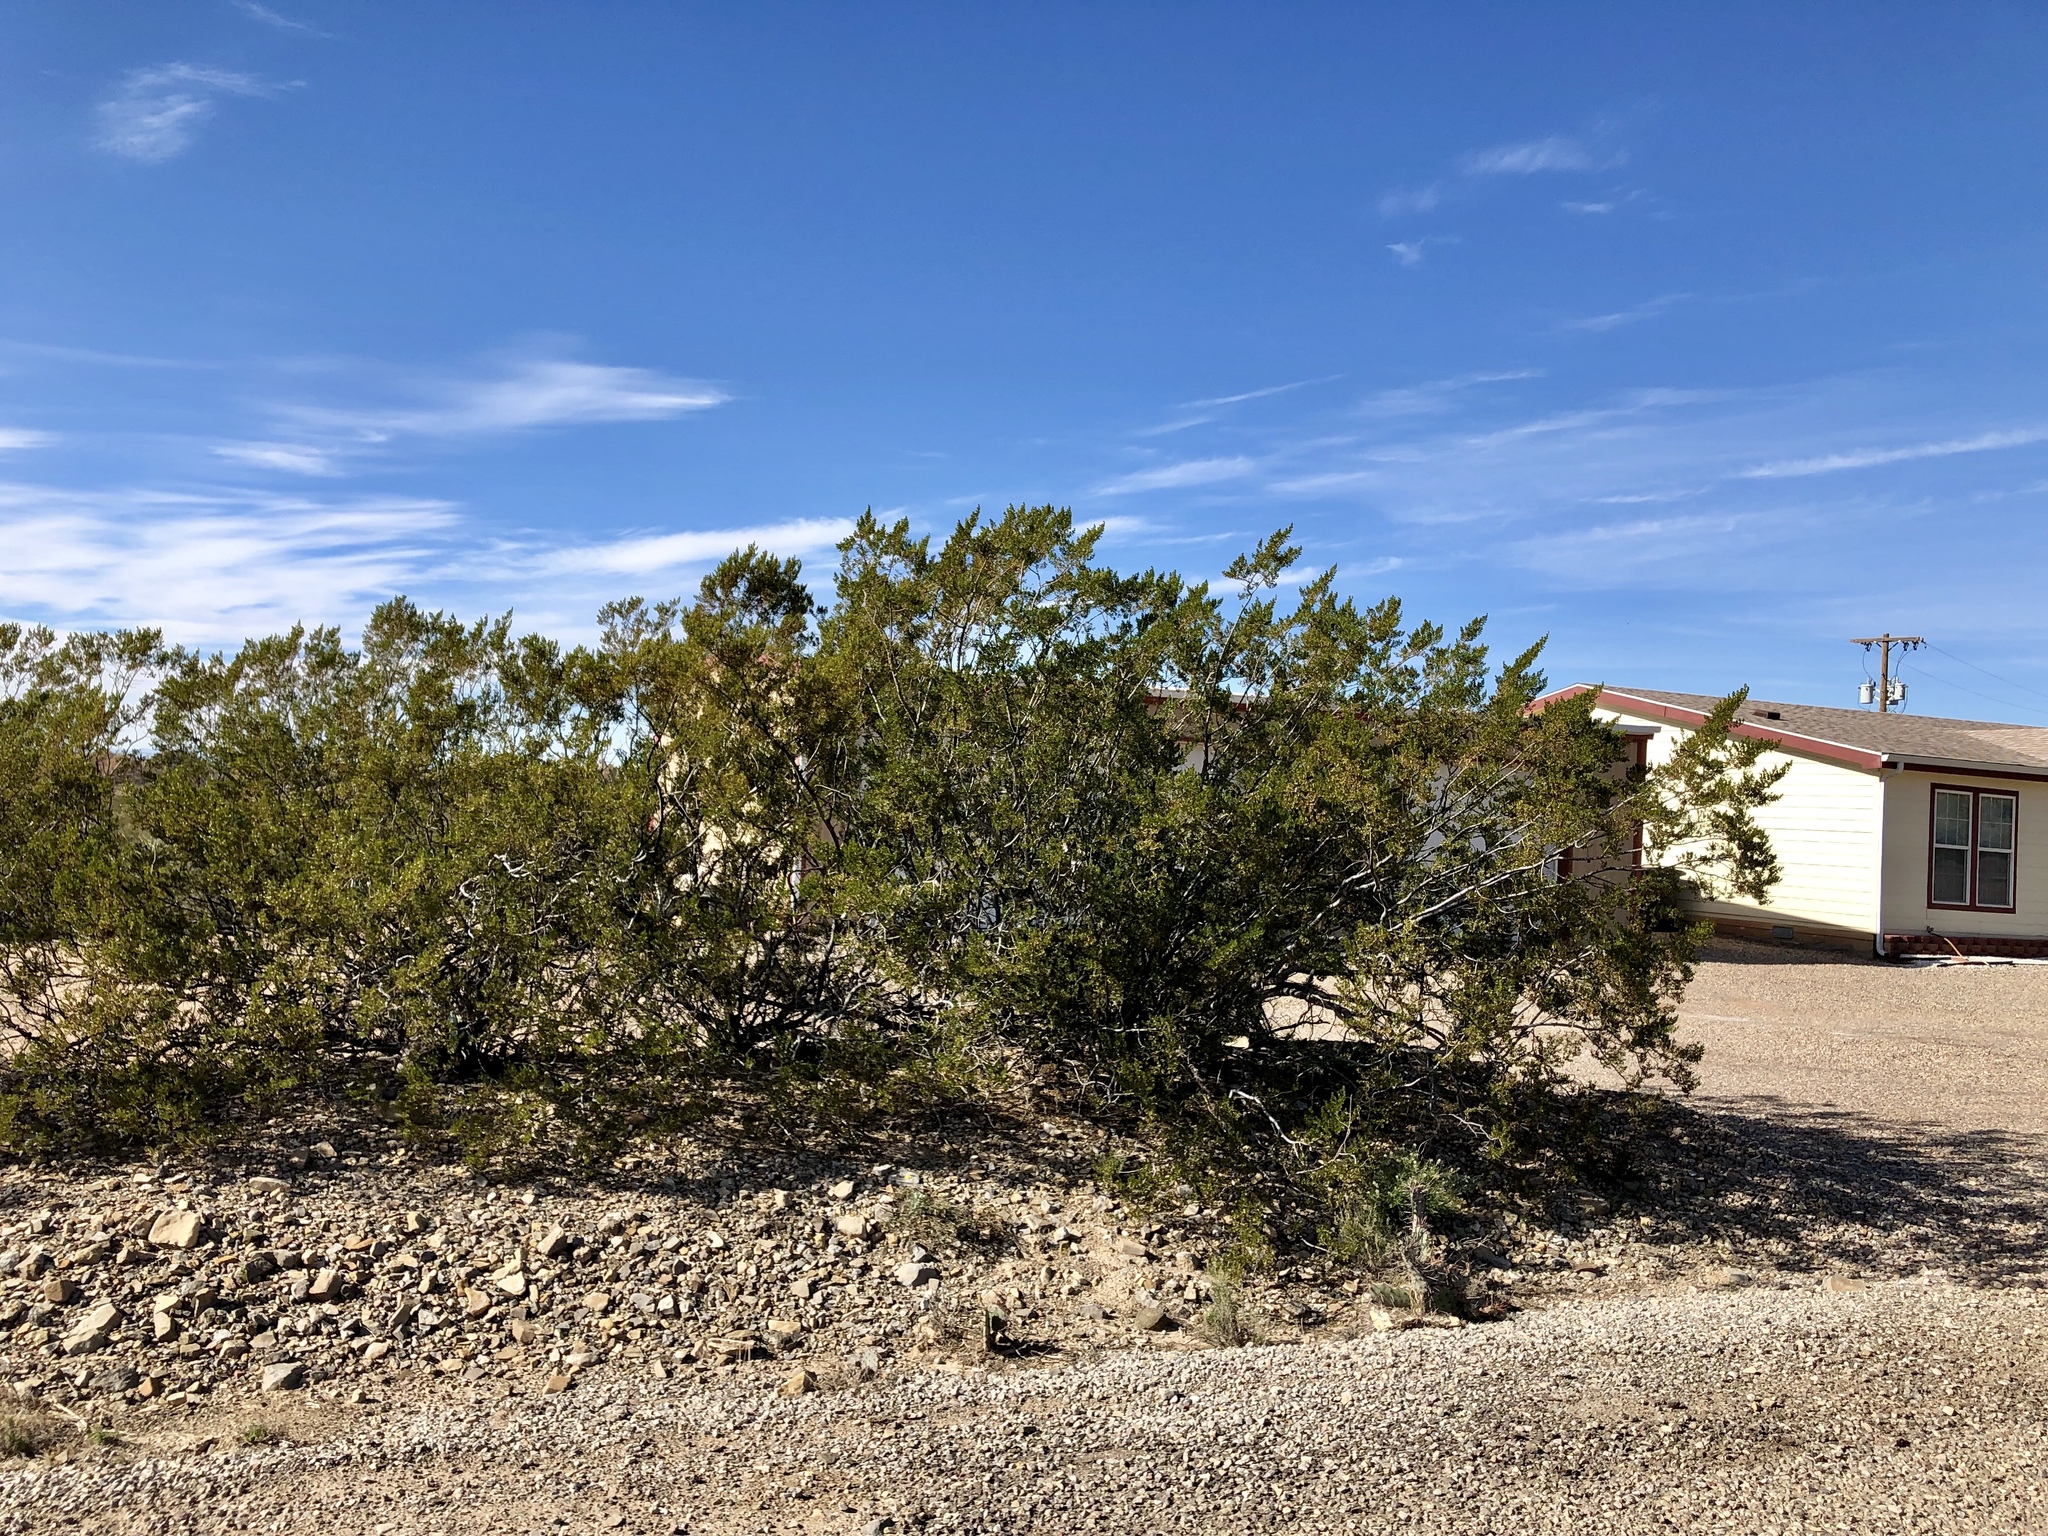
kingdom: Plantae
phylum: Tracheophyta
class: Magnoliopsida
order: Zygophyllales
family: Zygophyllaceae
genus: Larrea
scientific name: Larrea tridentata
